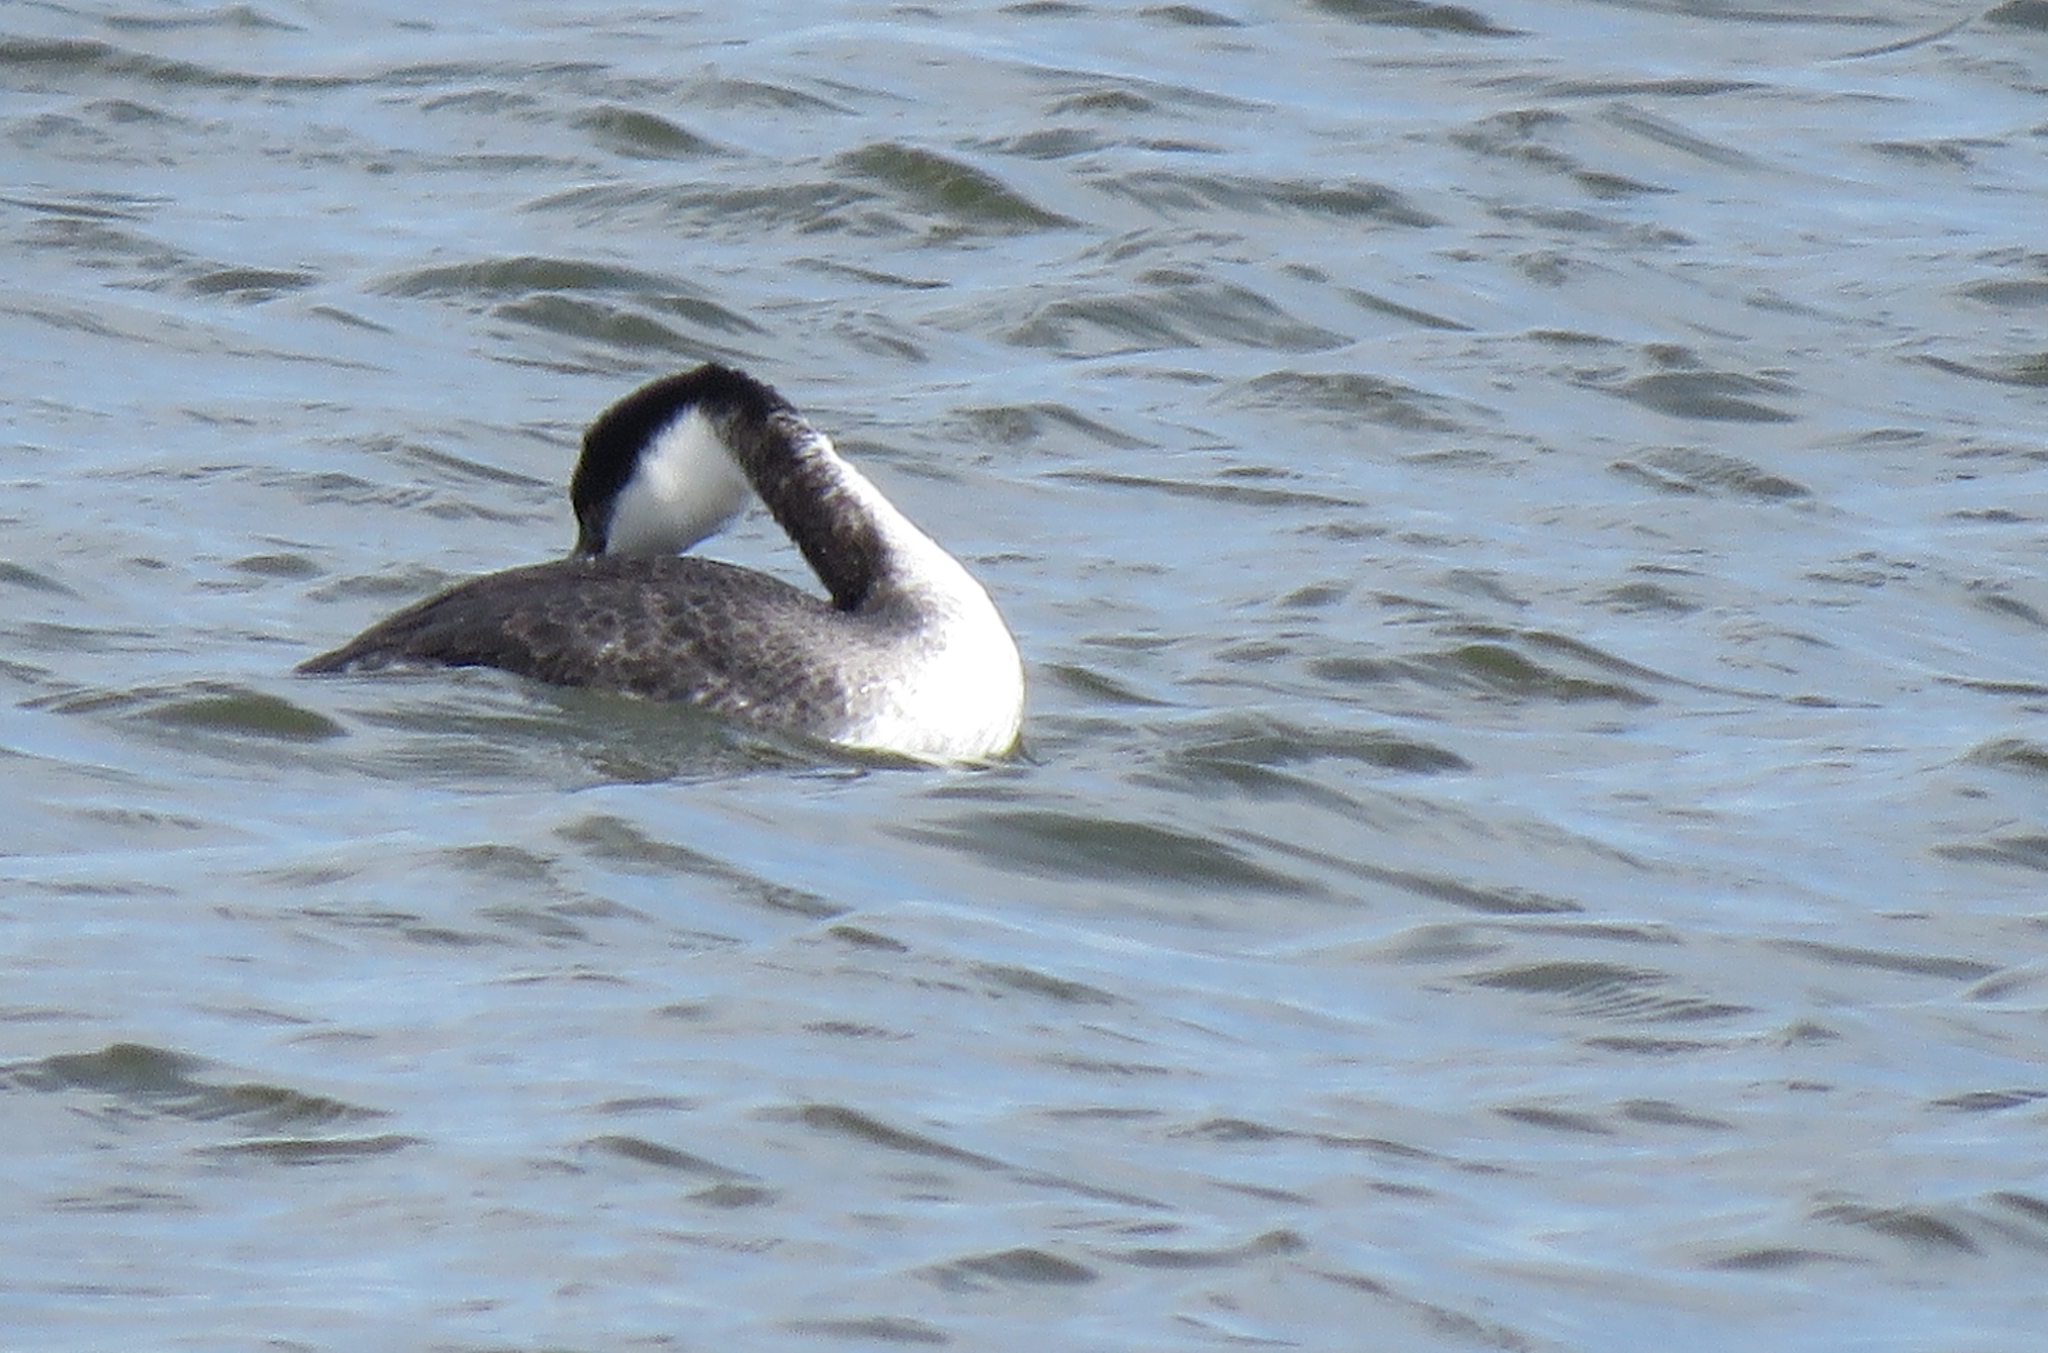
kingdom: Animalia
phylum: Chordata
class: Aves
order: Podicipediformes
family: Podicipedidae
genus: Aechmophorus
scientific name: Aechmophorus occidentalis
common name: Western grebe
